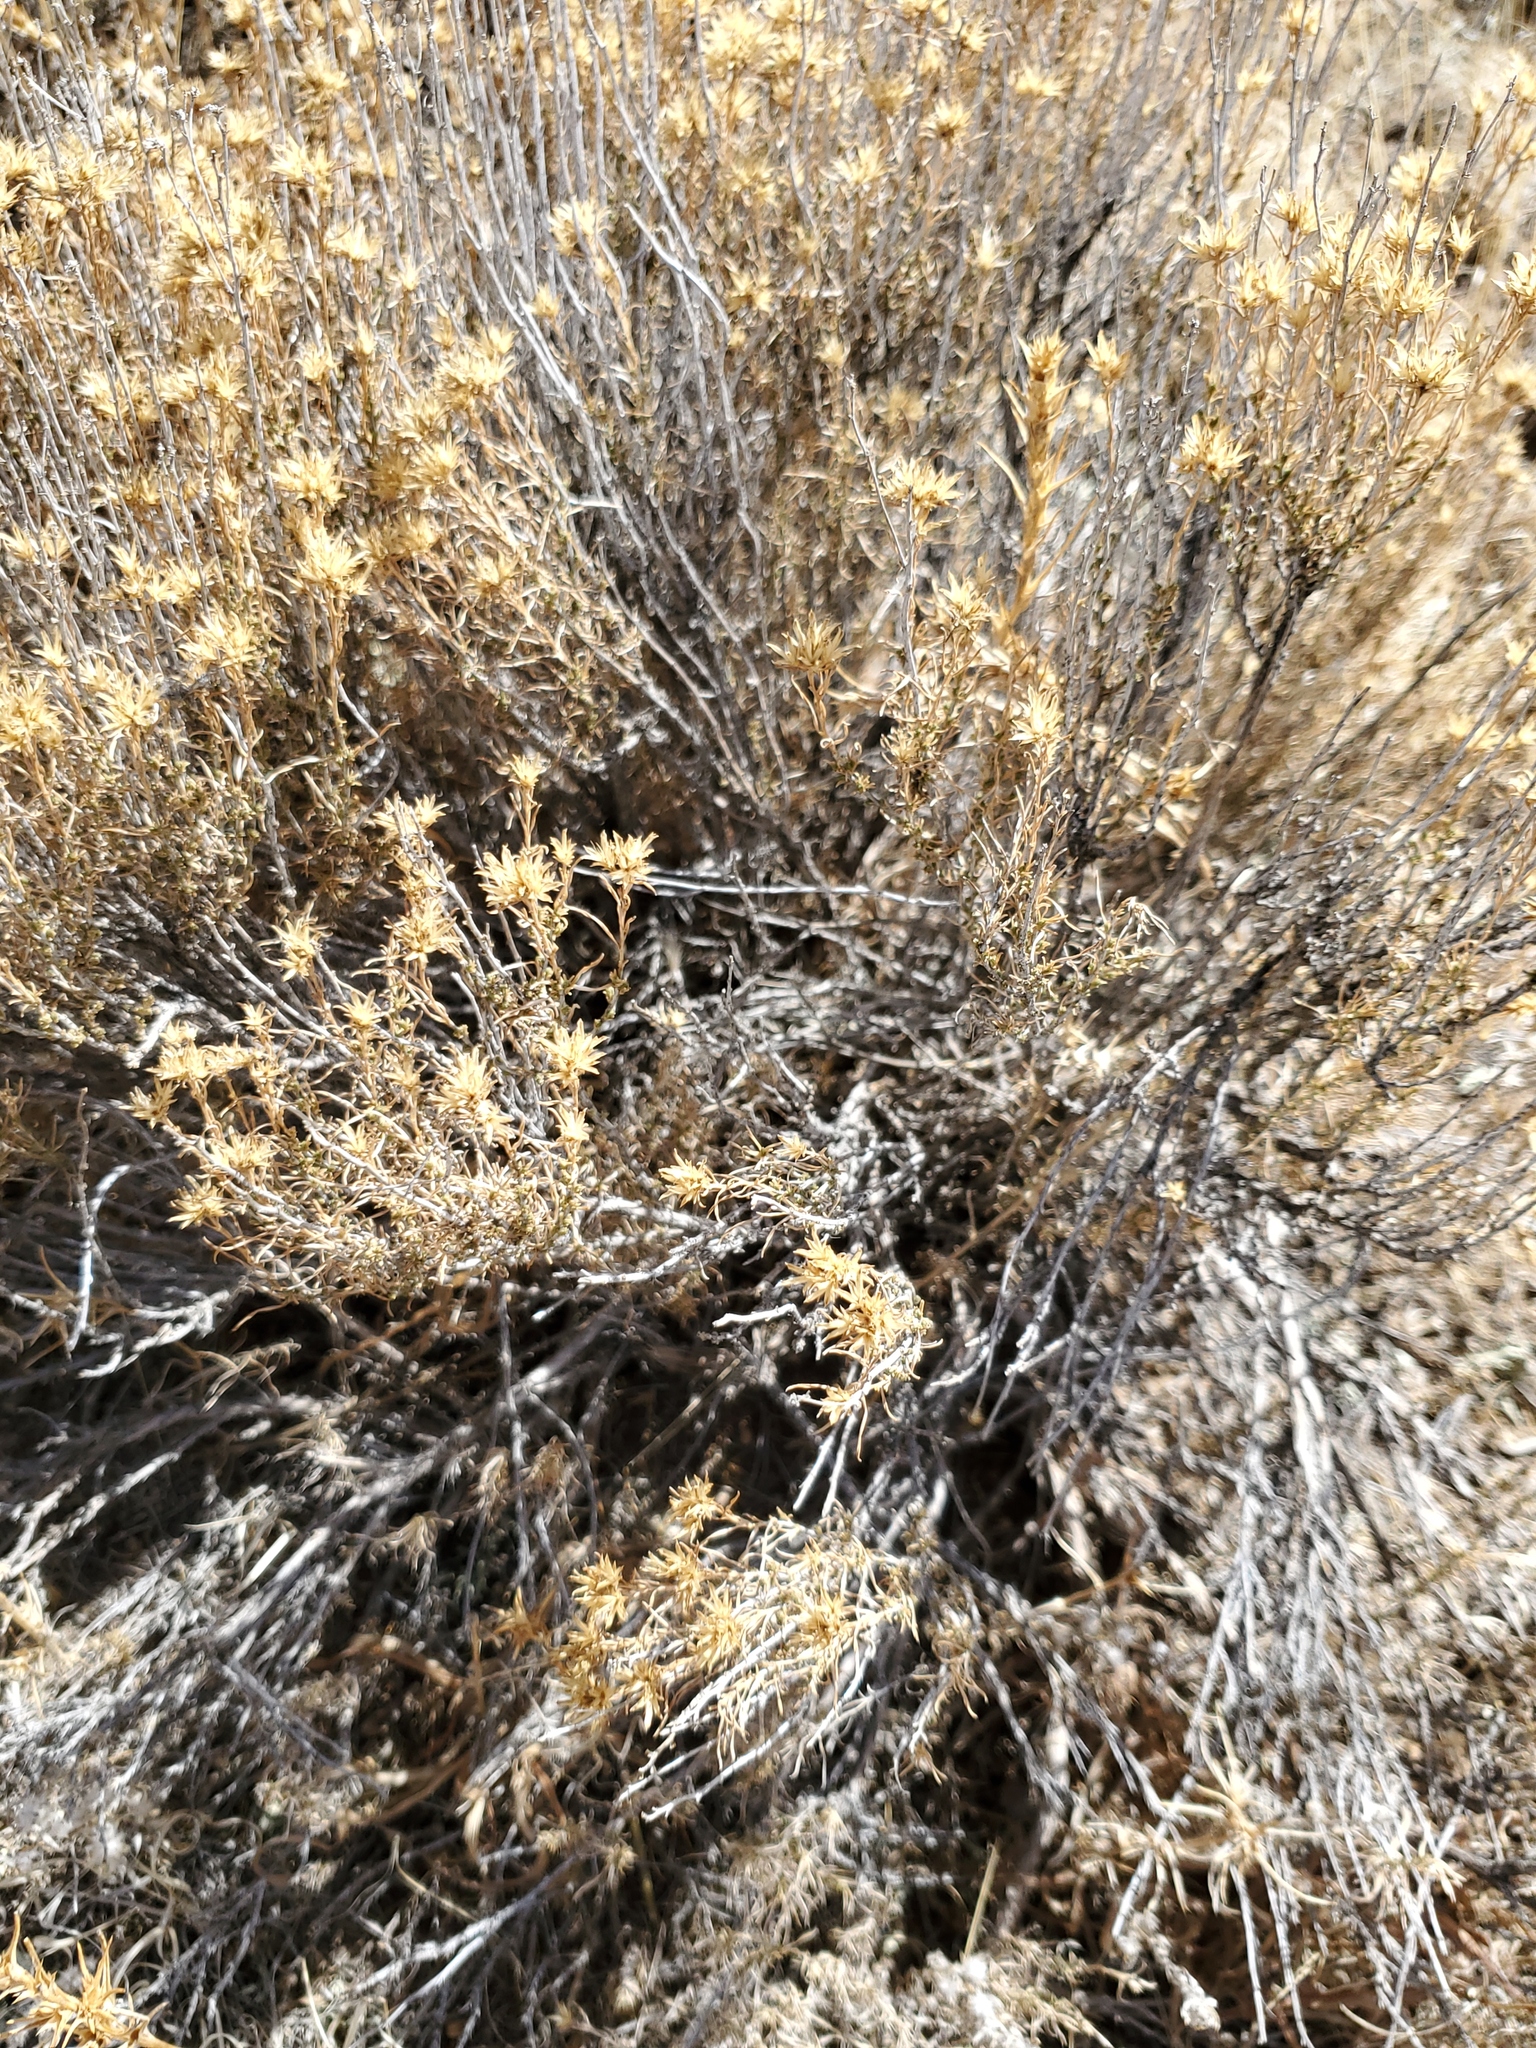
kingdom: Plantae
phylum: Tracheophyta
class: Magnoliopsida
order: Asterales
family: Asteraceae
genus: Ericameria
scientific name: Ericameria nauseosa
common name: Rubber rabbitbrush
